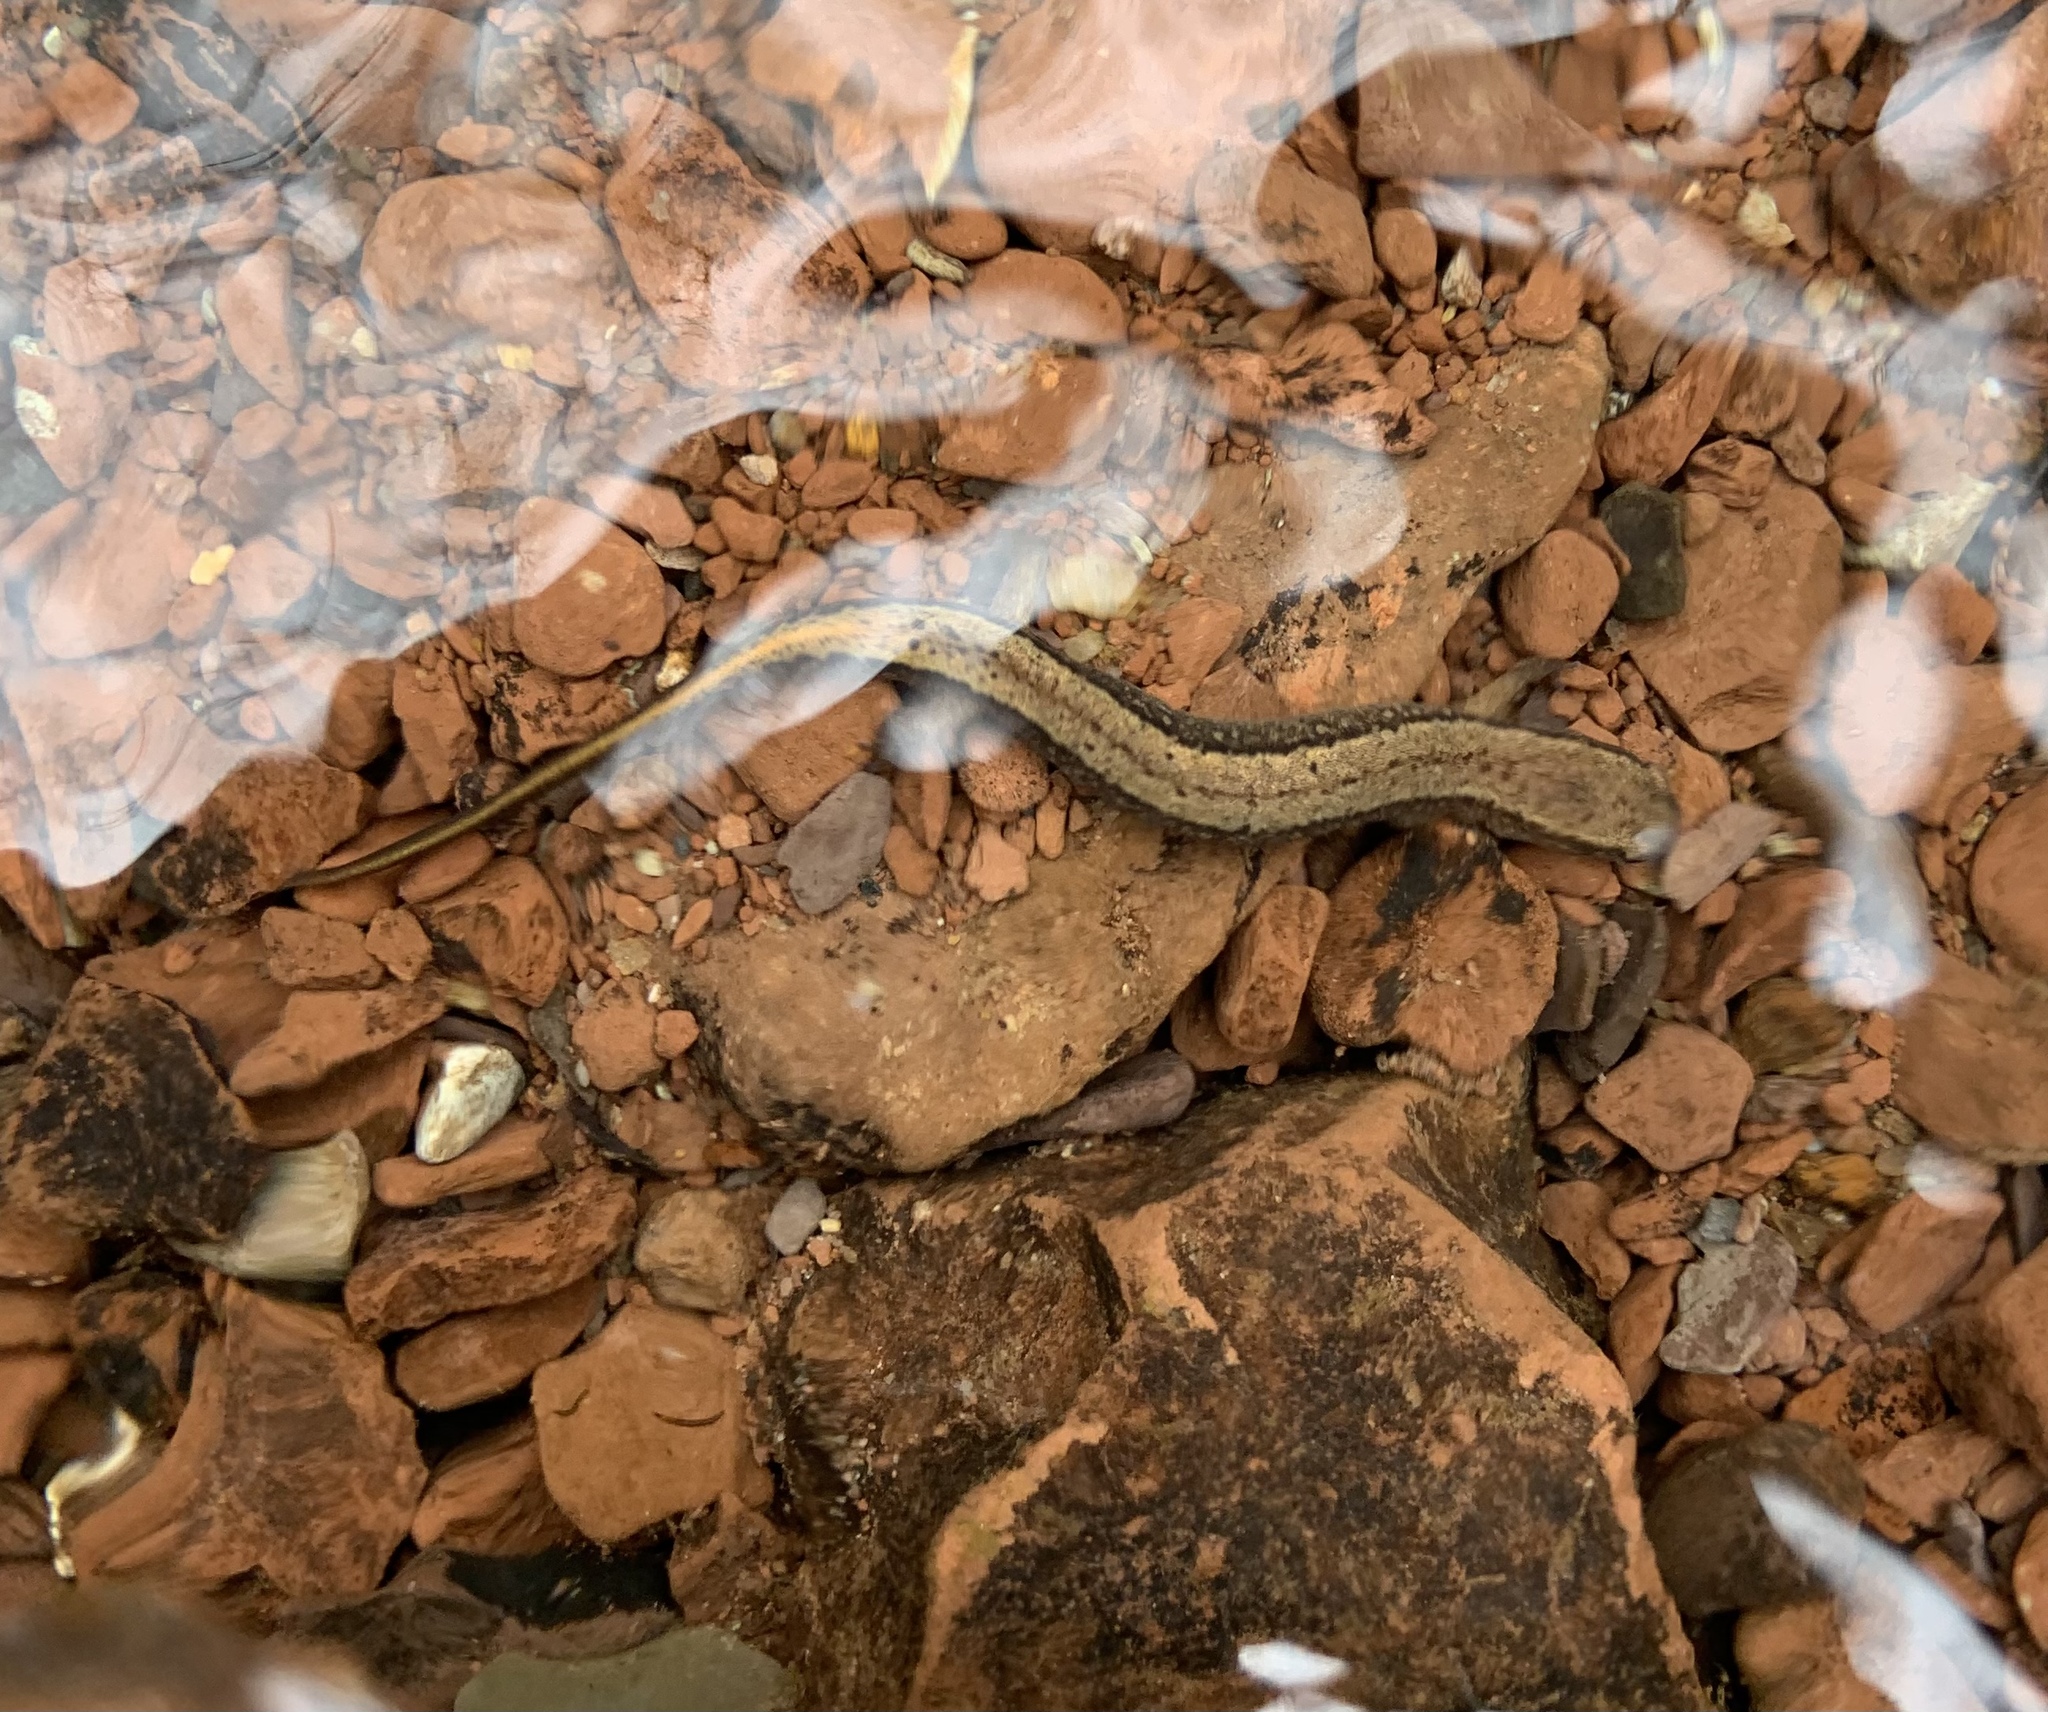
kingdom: Animalia
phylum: Chordata
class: Amphibia
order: Caudata
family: Plethodontidae
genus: Eurycea
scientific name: Eurycea bislineata
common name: Northern two-lined salamander
